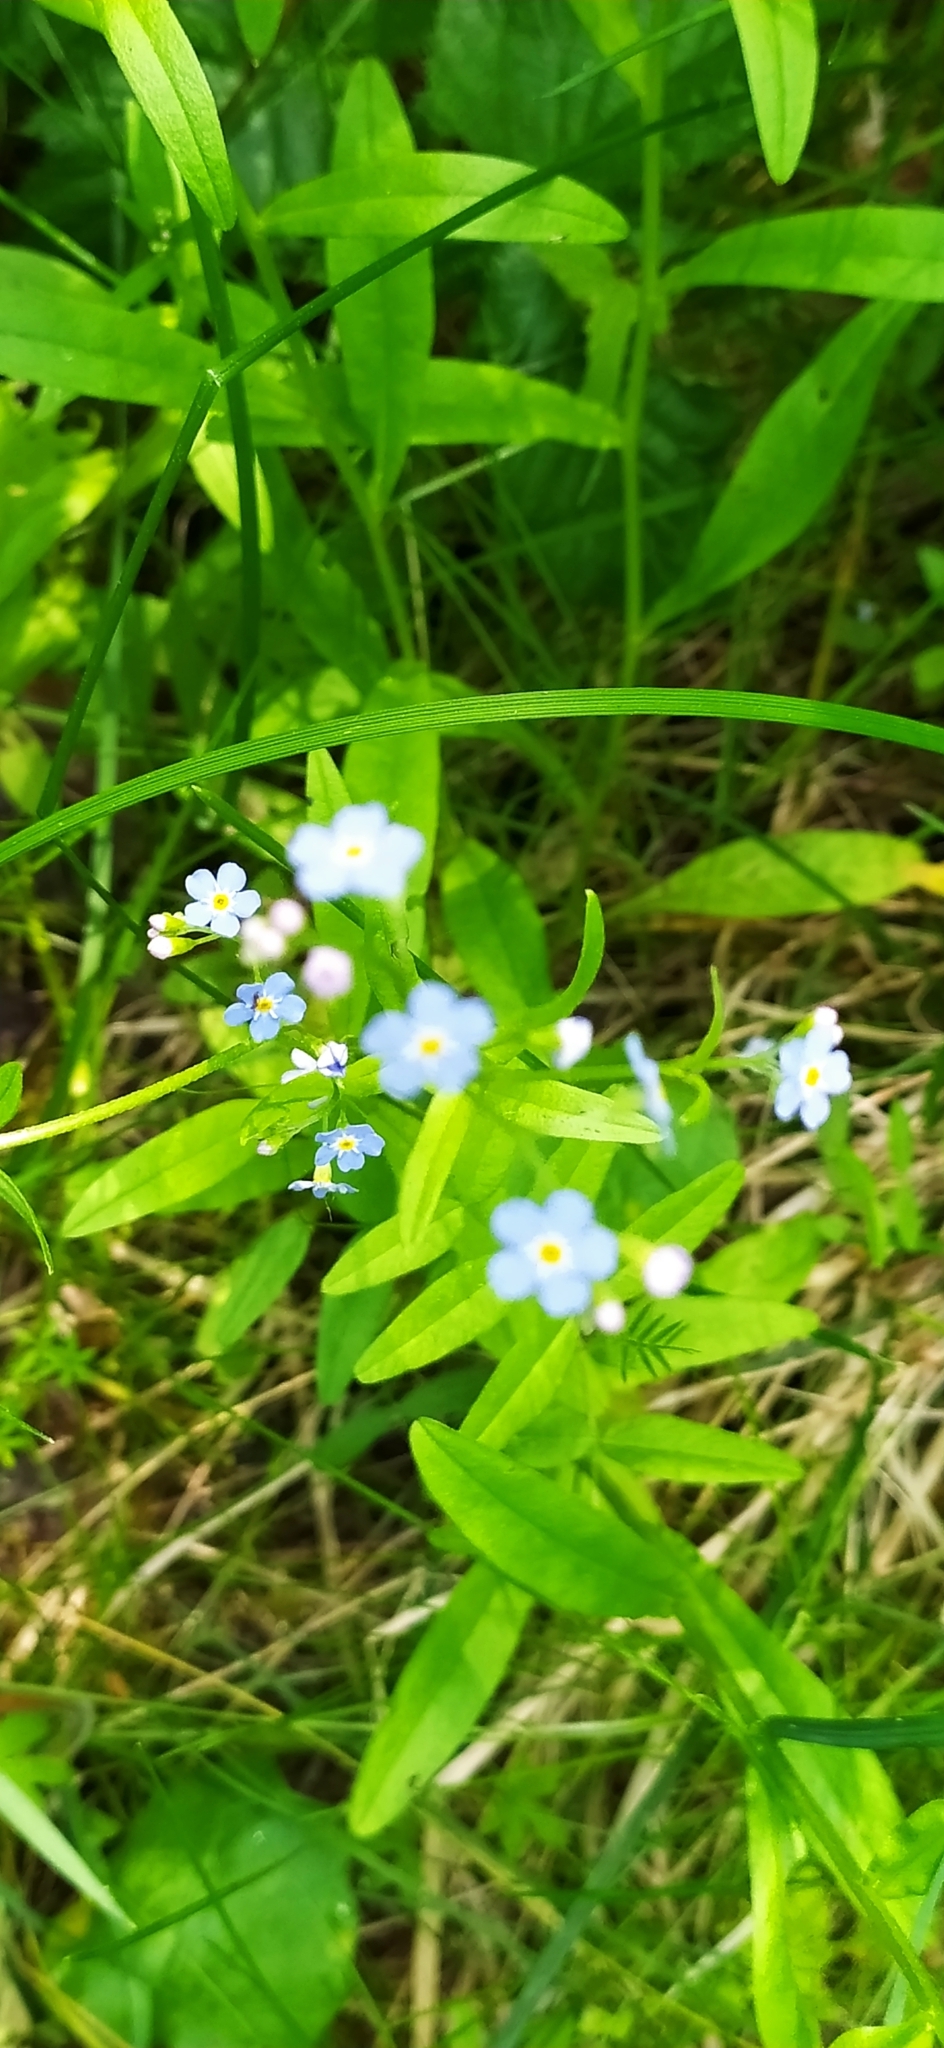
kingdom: Plantae
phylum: Tracheophyta
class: Magnoliopsida
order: Boraginales
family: Boraginaceae
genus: Myosotis
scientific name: Myosotis scorpioides
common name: Water forget-me-not
